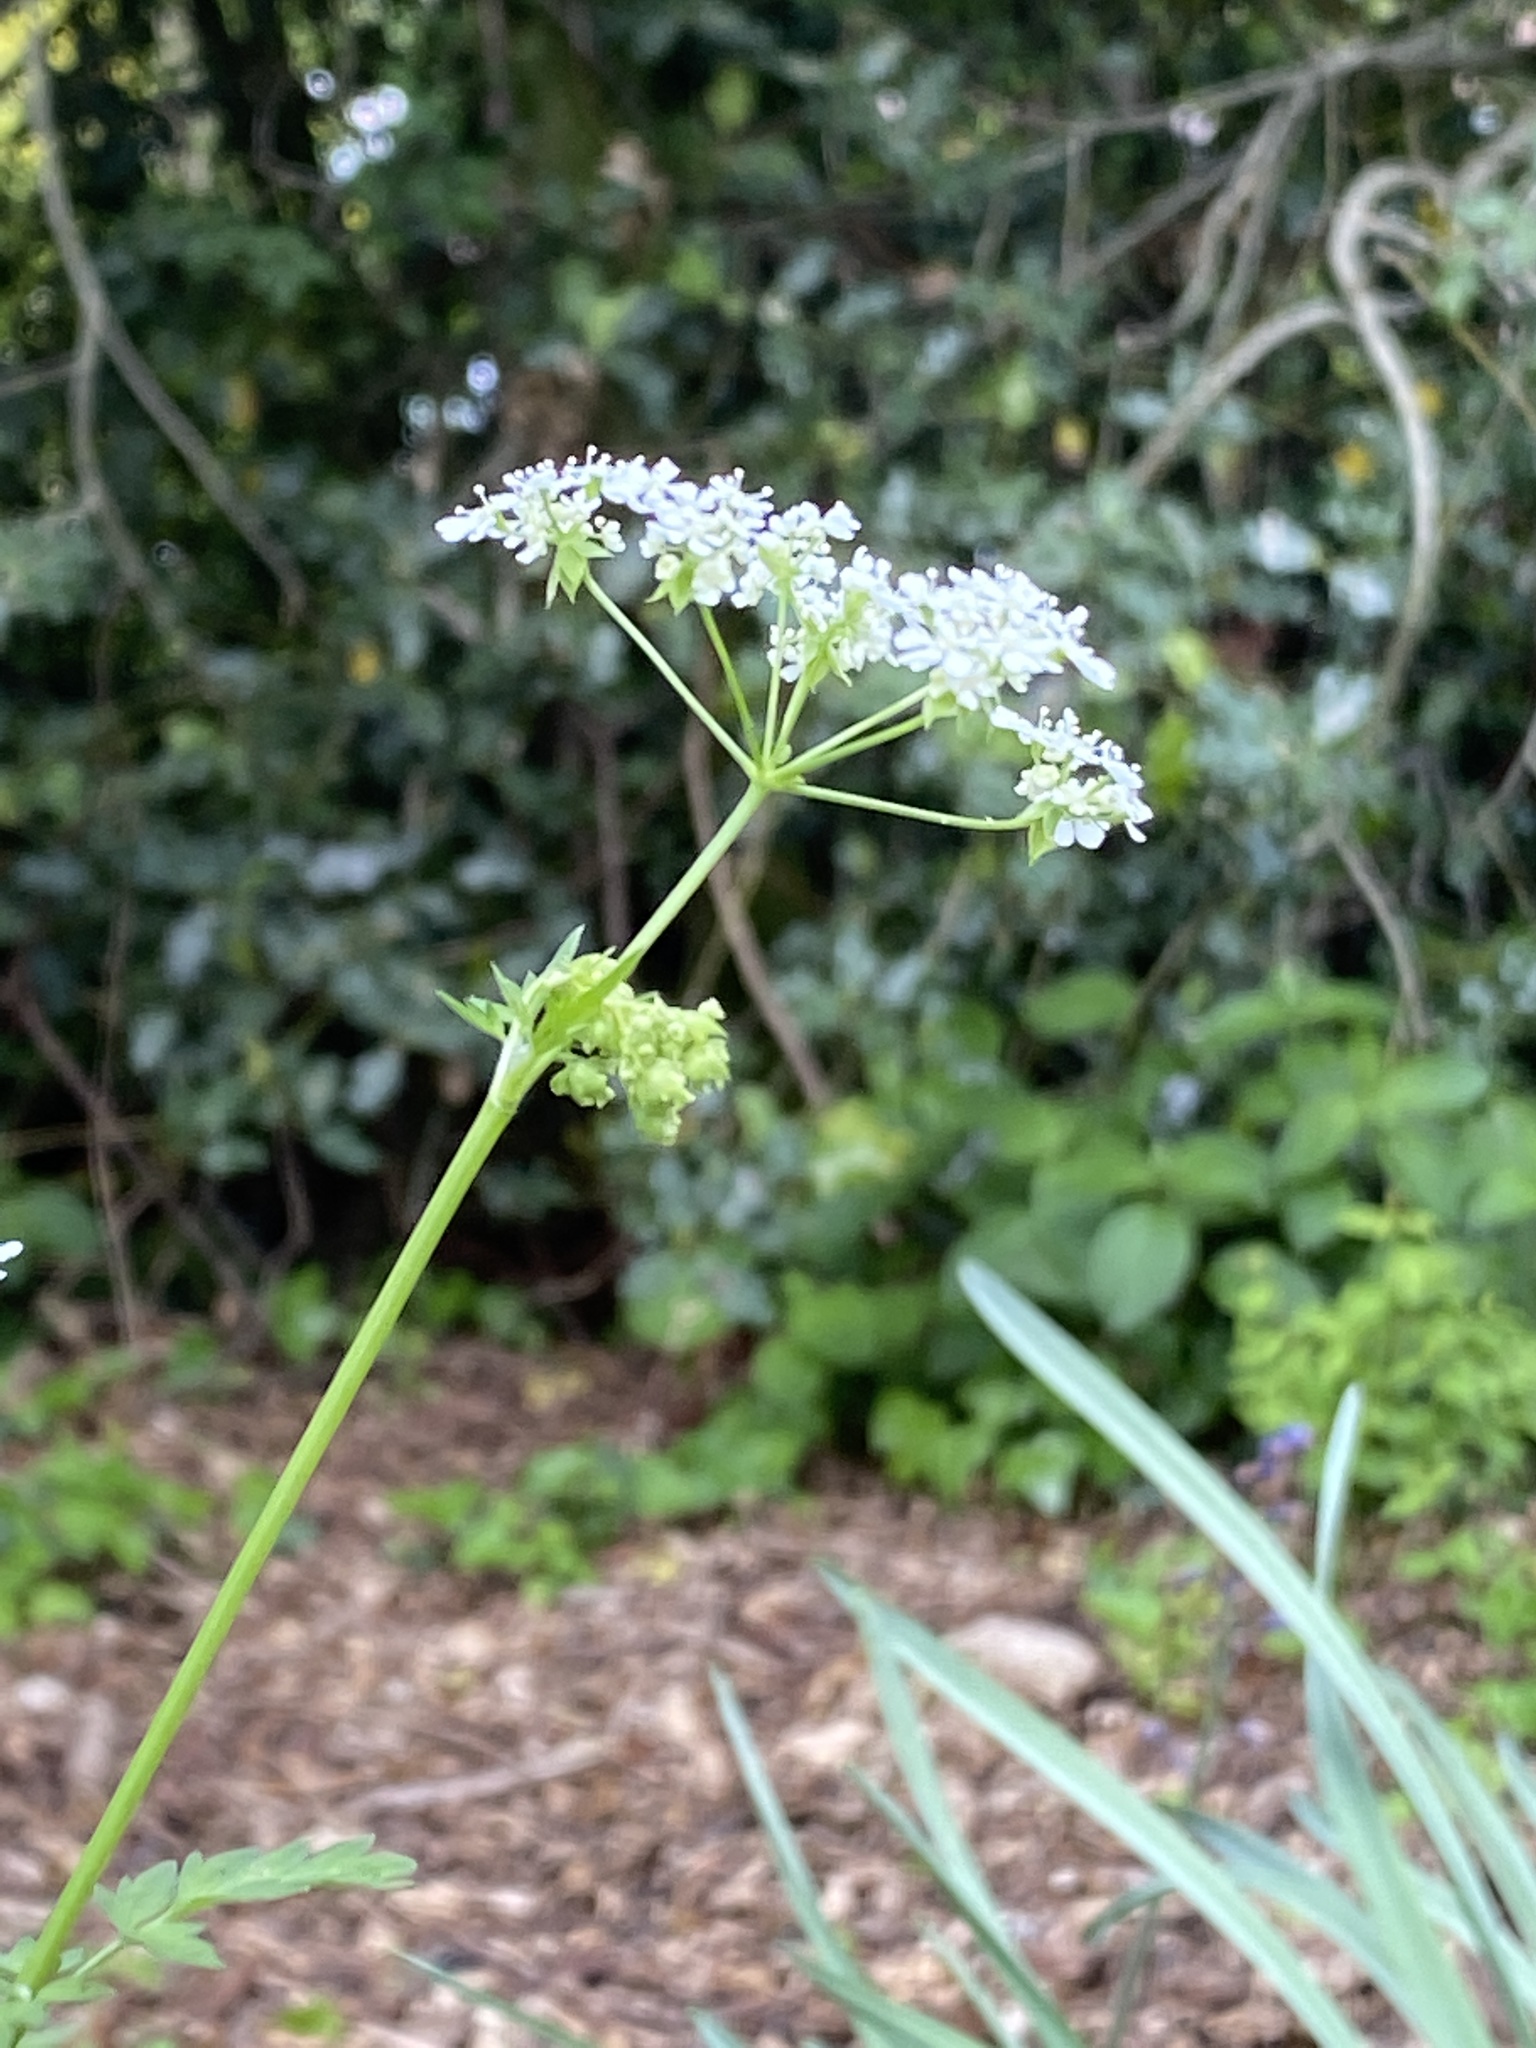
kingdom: Plantae
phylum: Tracheophyta
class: Magnoliopsida
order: Apiales
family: Apiaceae
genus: Anthriscus
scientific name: Anthriscus sylvestris
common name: Cow parsley
